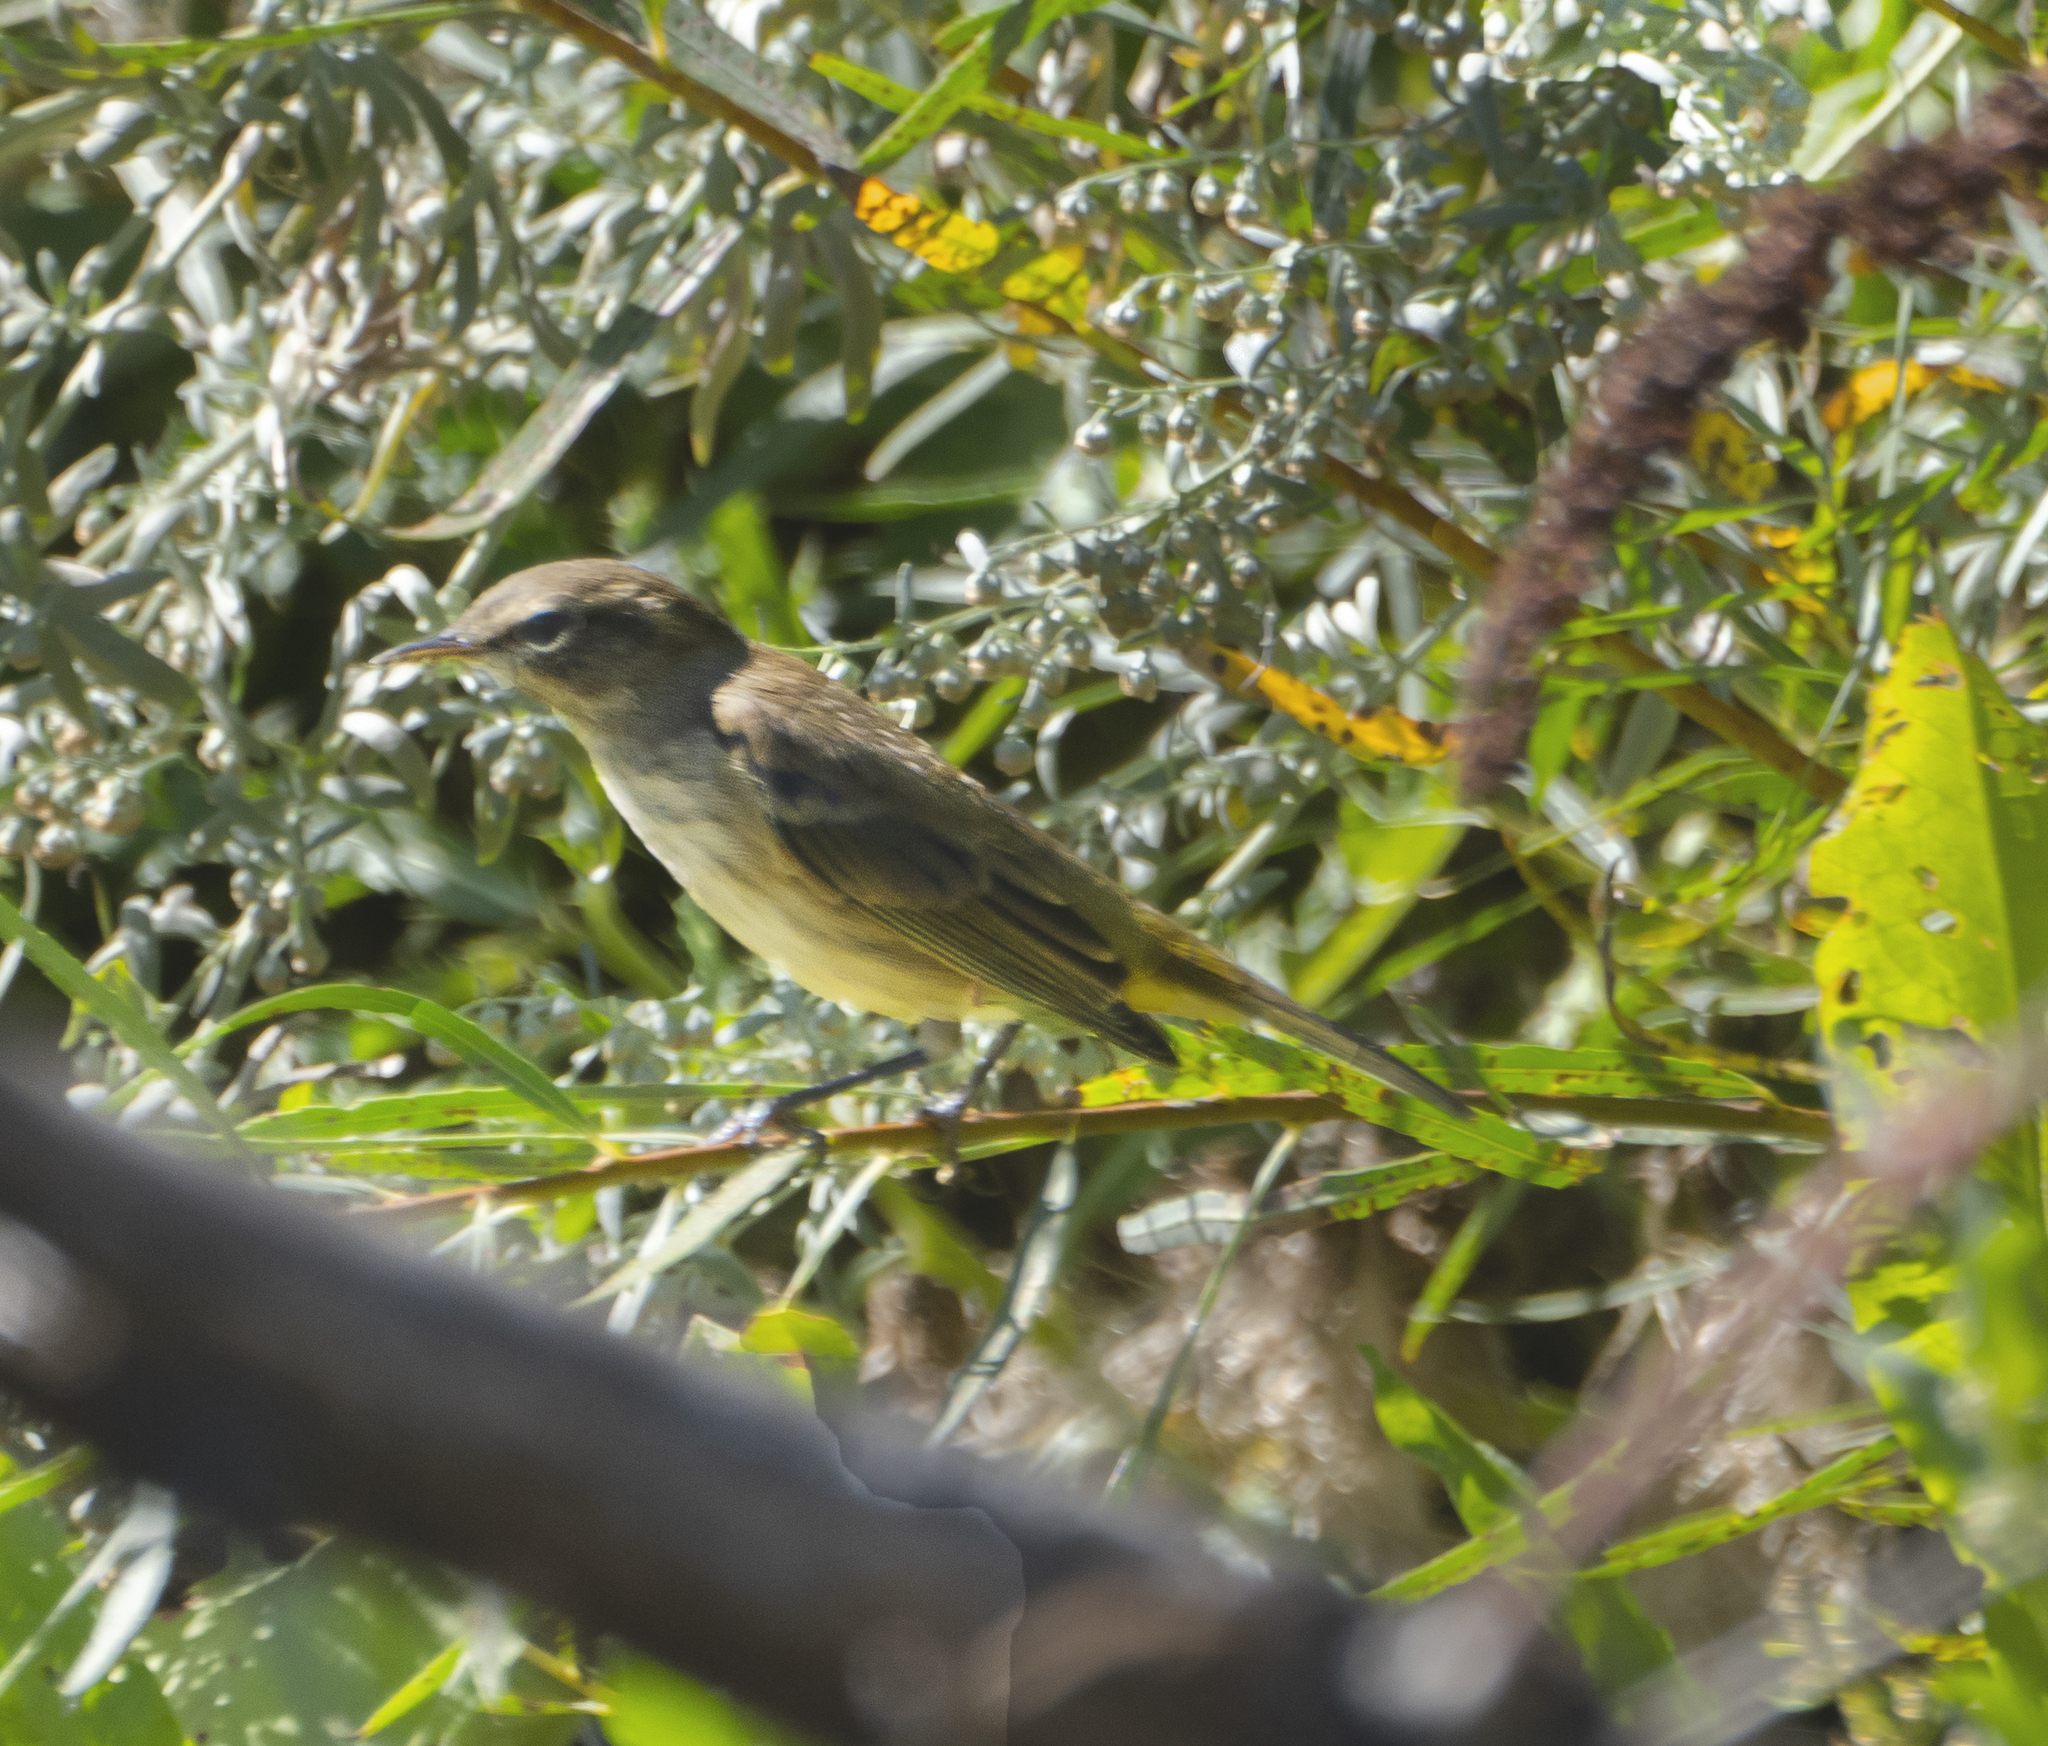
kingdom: Animalia
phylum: Chordata
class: Aves
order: Passeriformes
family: Parulidae
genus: Setophaga
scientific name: Setophaga palmarum
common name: Palm warbler
